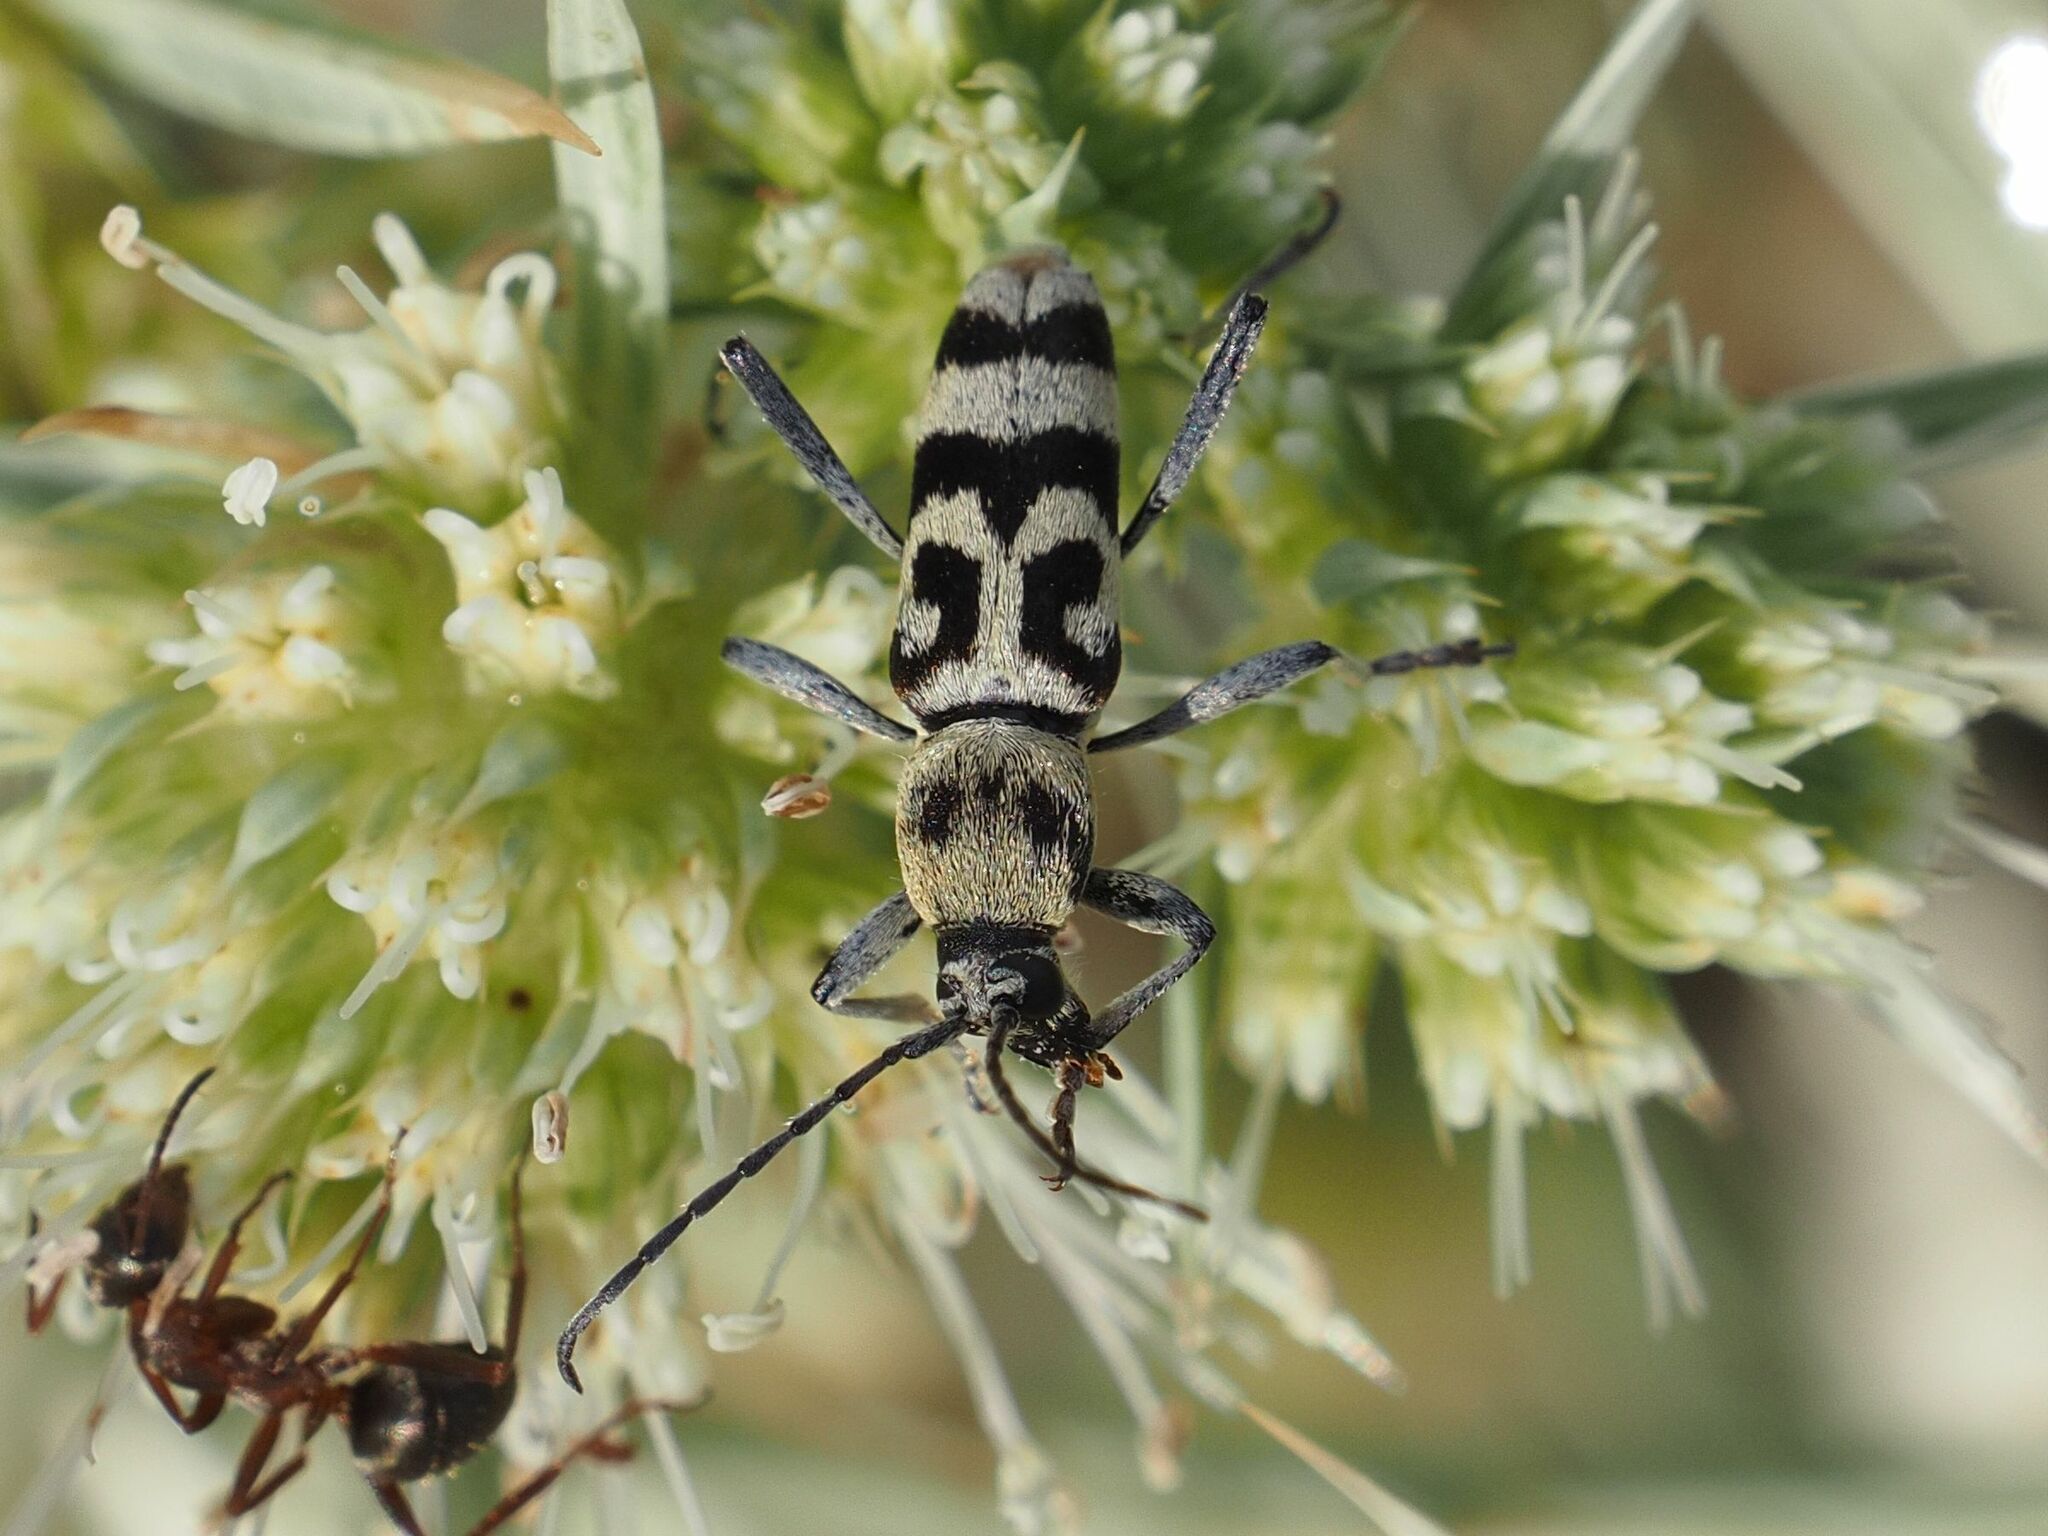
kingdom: Animalia
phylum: Arthropoda
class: Insecta
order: Coleoptera
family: Cerambycidae
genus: Chlorophorus
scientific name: Chlorophorus varius
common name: Grape wood borer
